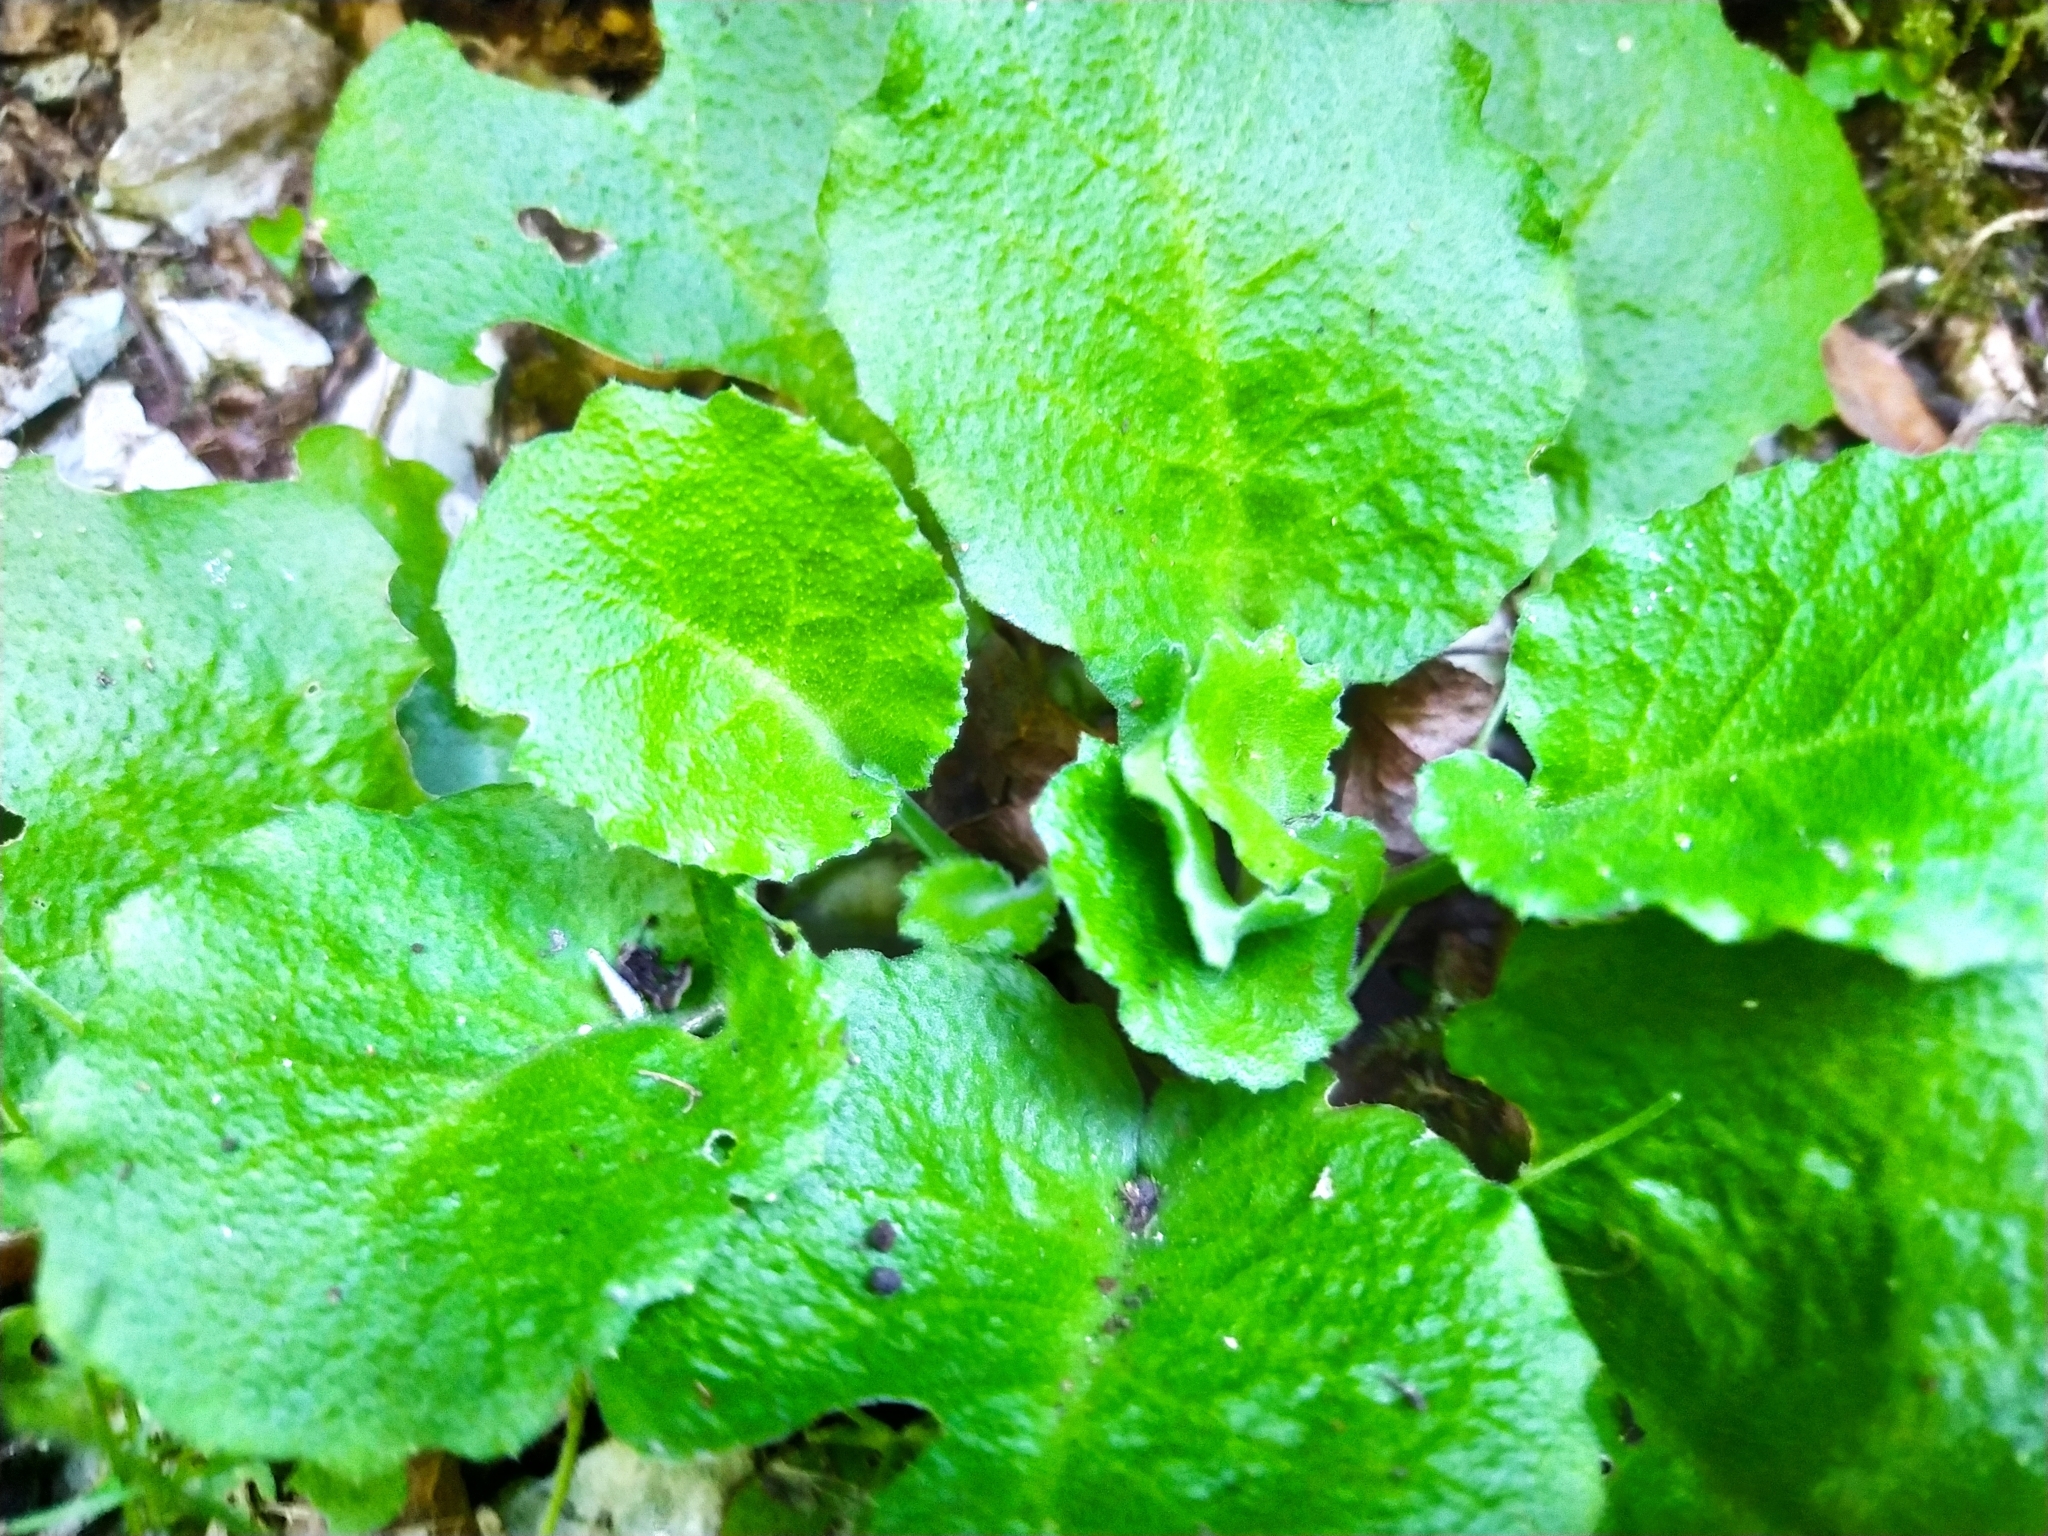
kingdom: Plantae
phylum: Tracheophyta
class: Magnoliopsida
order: Brassicales
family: Brassicaceae
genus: Arabis
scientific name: Arabis nordmanniana
